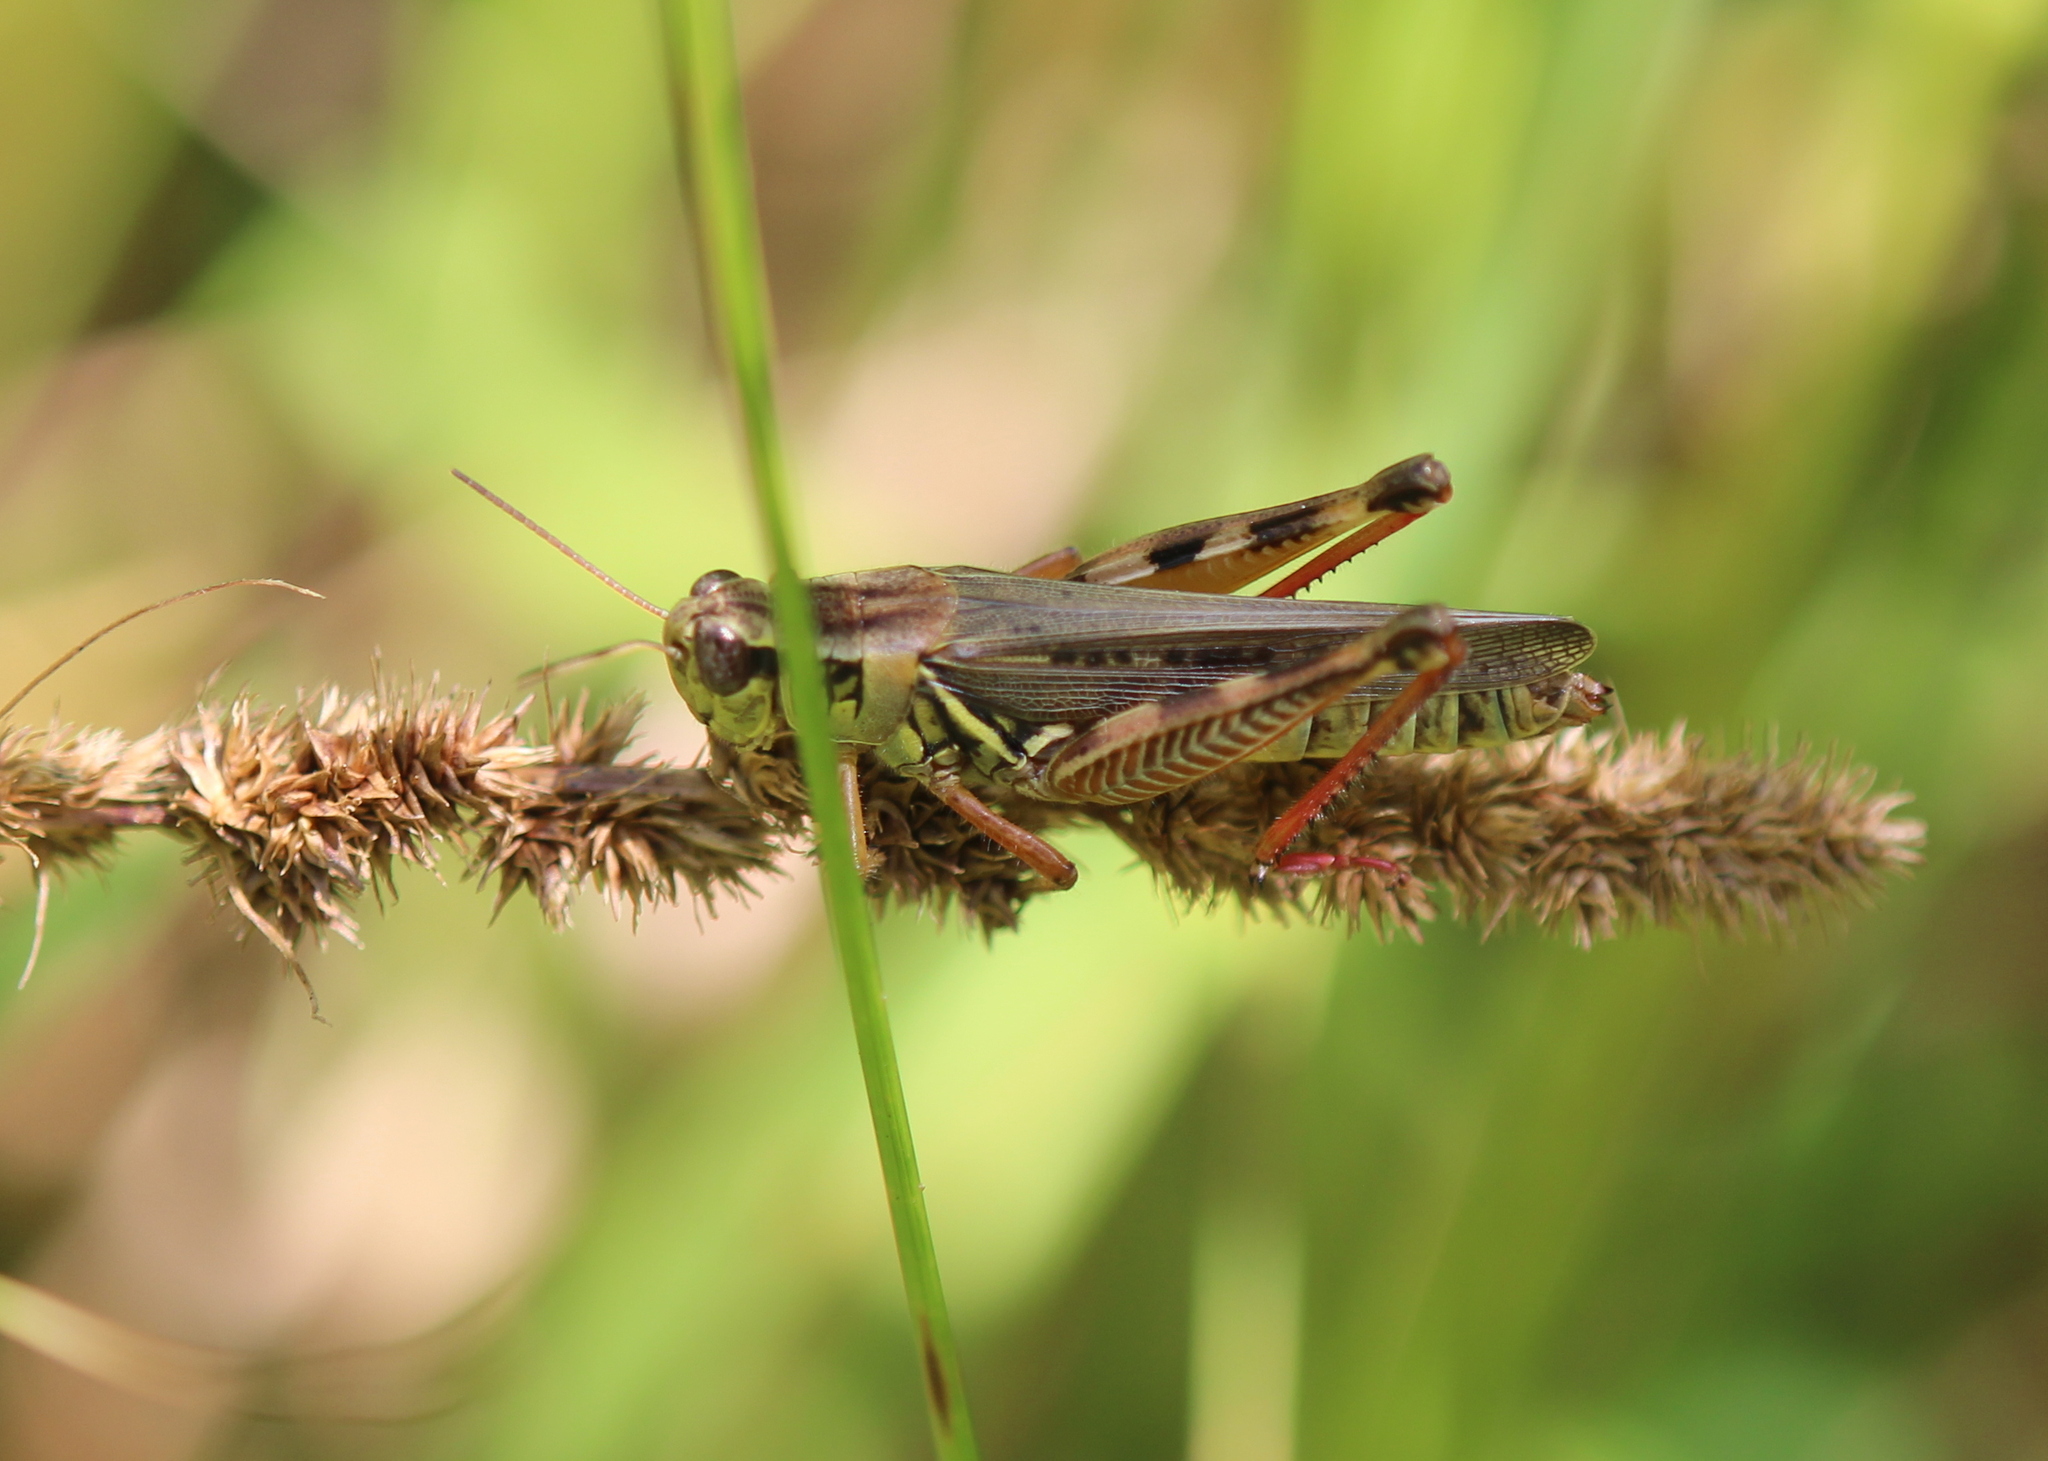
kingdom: Animalia
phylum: Arthropoda
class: Insecta
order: Orthoptera
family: Acrididae
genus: Melanoplus
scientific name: Melanoplus femurrubrum
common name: Red-legged grasshopper
